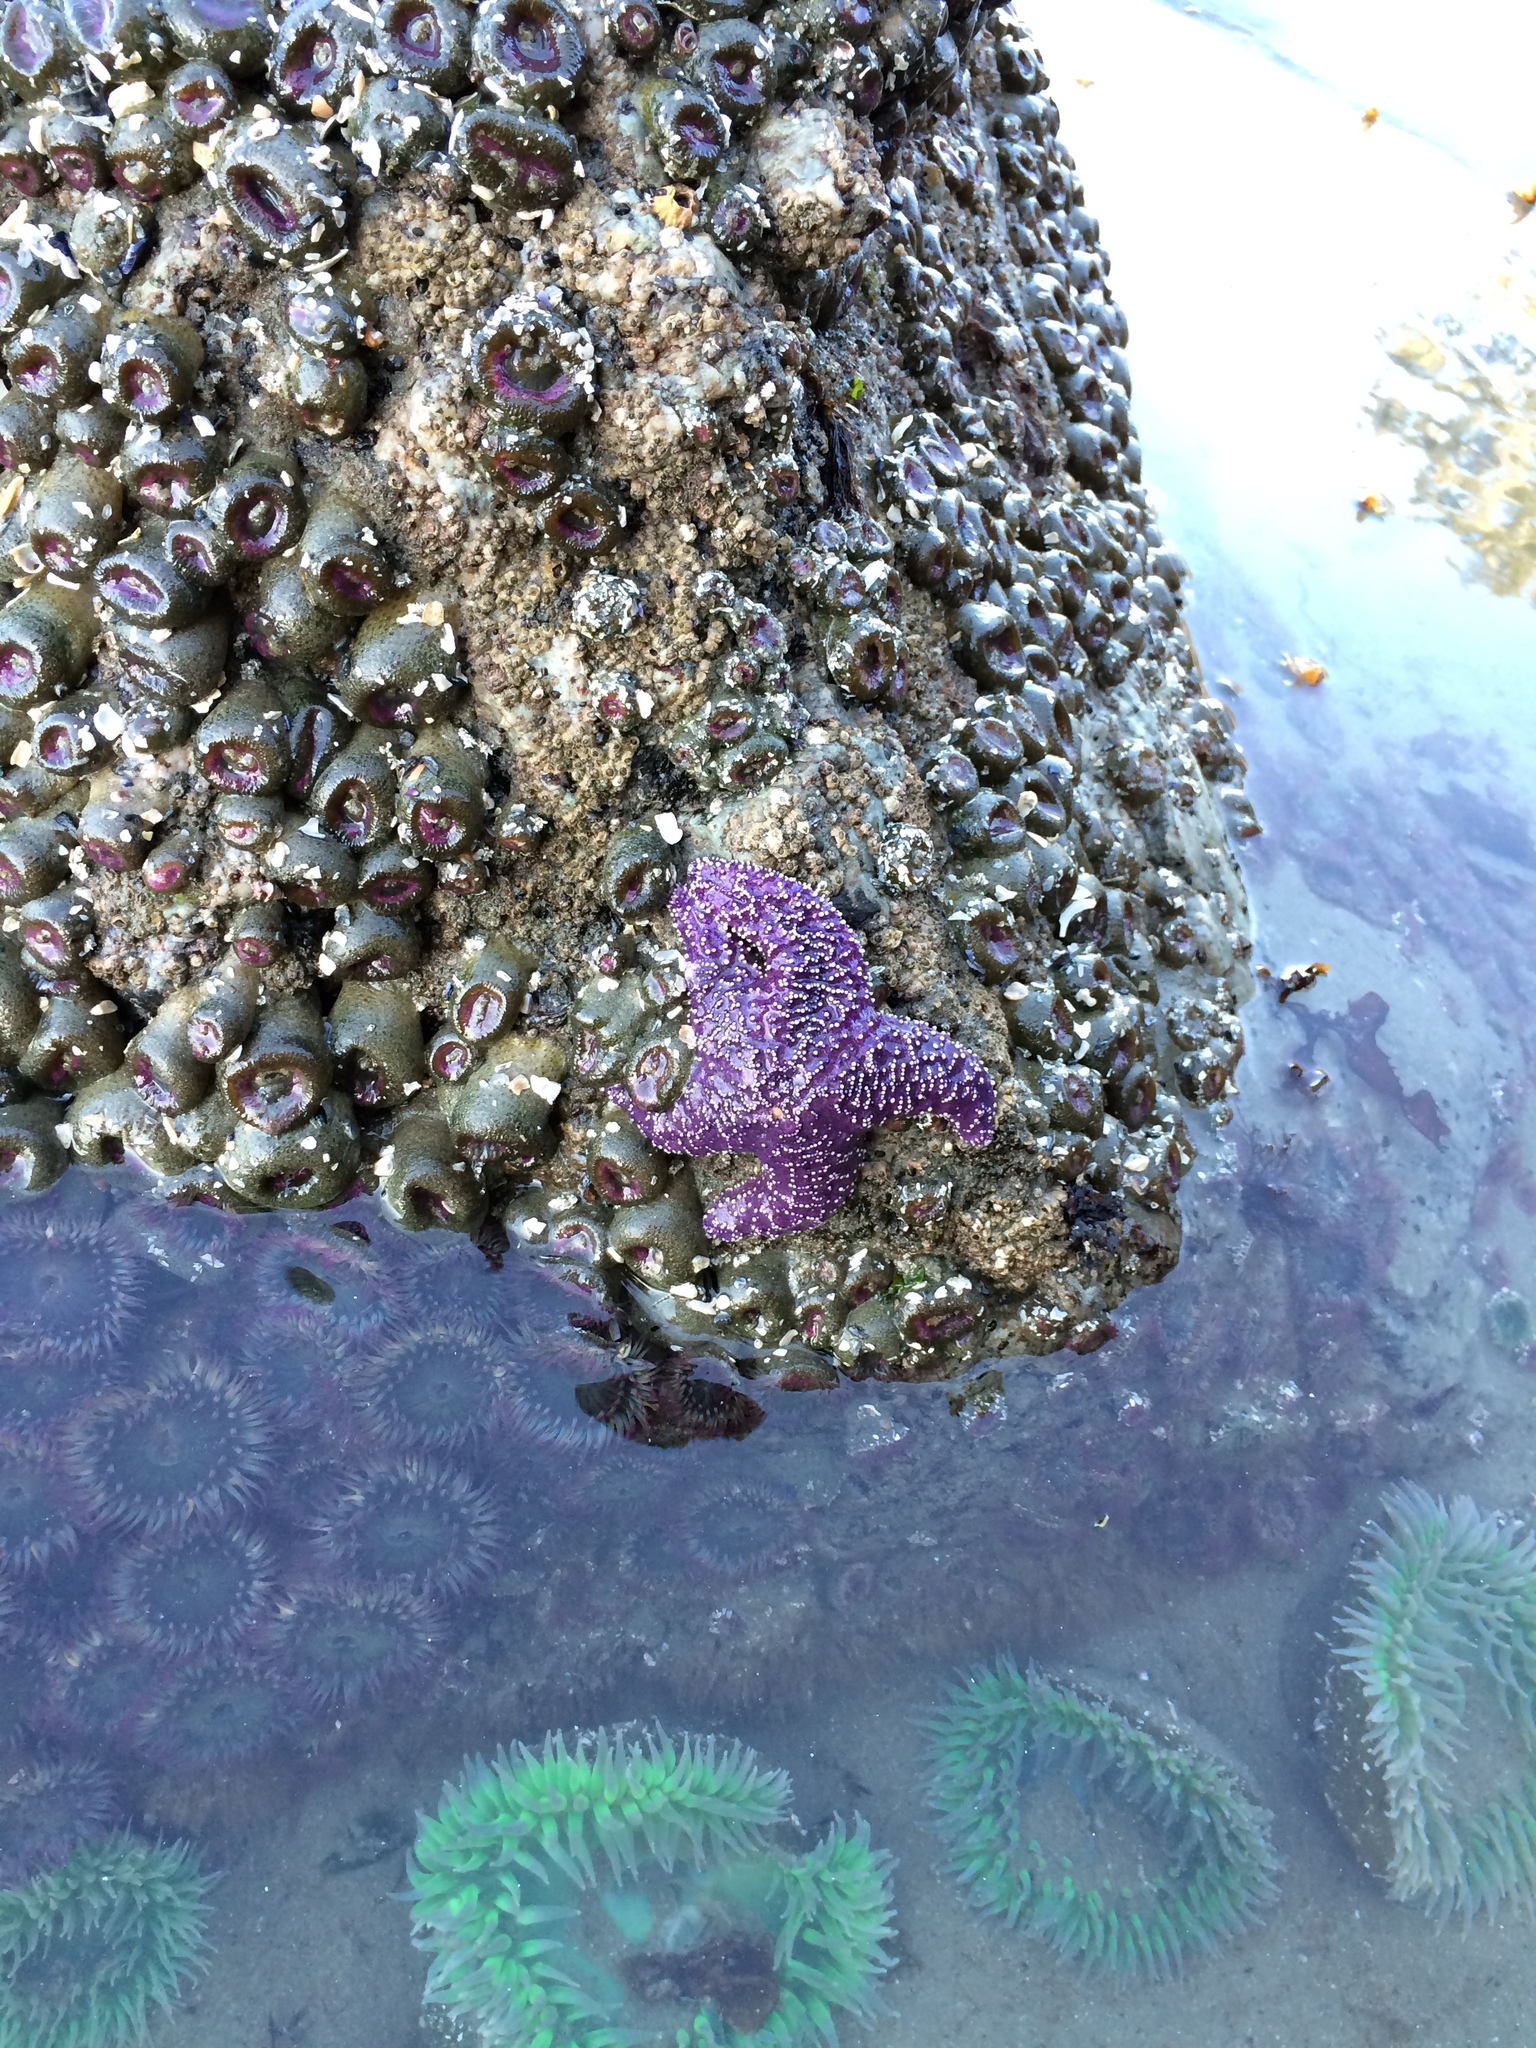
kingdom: Animalia
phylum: Echinodermata
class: Asteroidea
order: Forcipulatida
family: Asteriidae
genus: Pisaster
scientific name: Pisaster ochraceus
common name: Ochre stars
